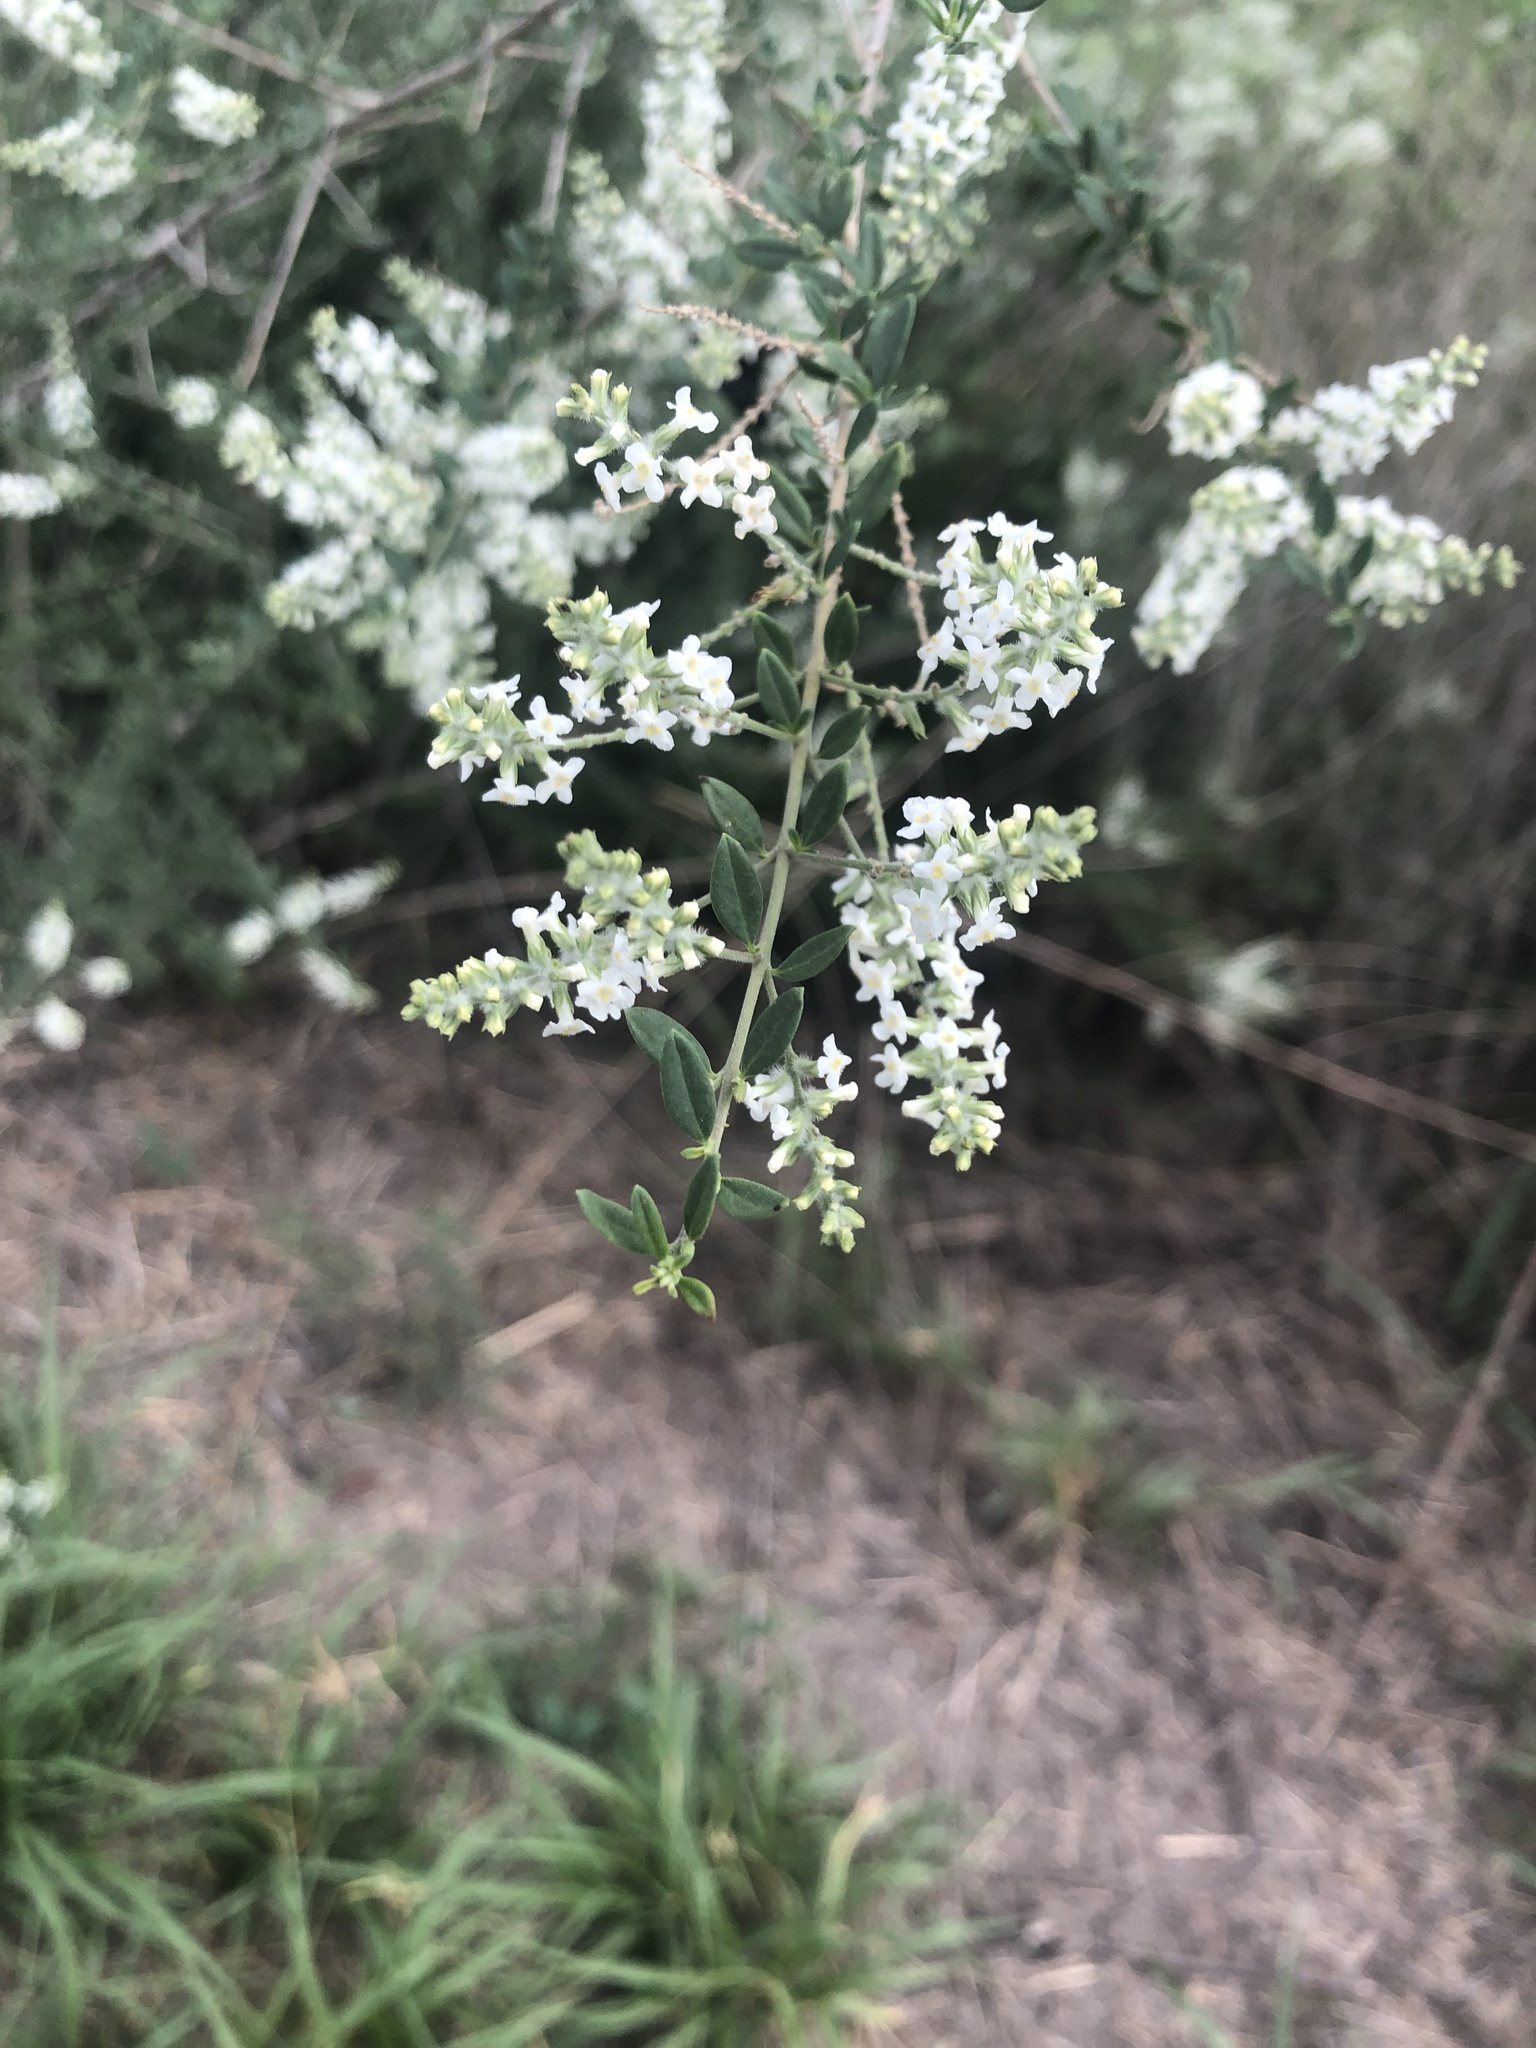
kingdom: Plantae
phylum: Tracheophyta
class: Magnoliopsida
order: Lamiales
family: Verbenaceae
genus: Aloysia
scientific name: Aloysia gratissima
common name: Common bee-brush
